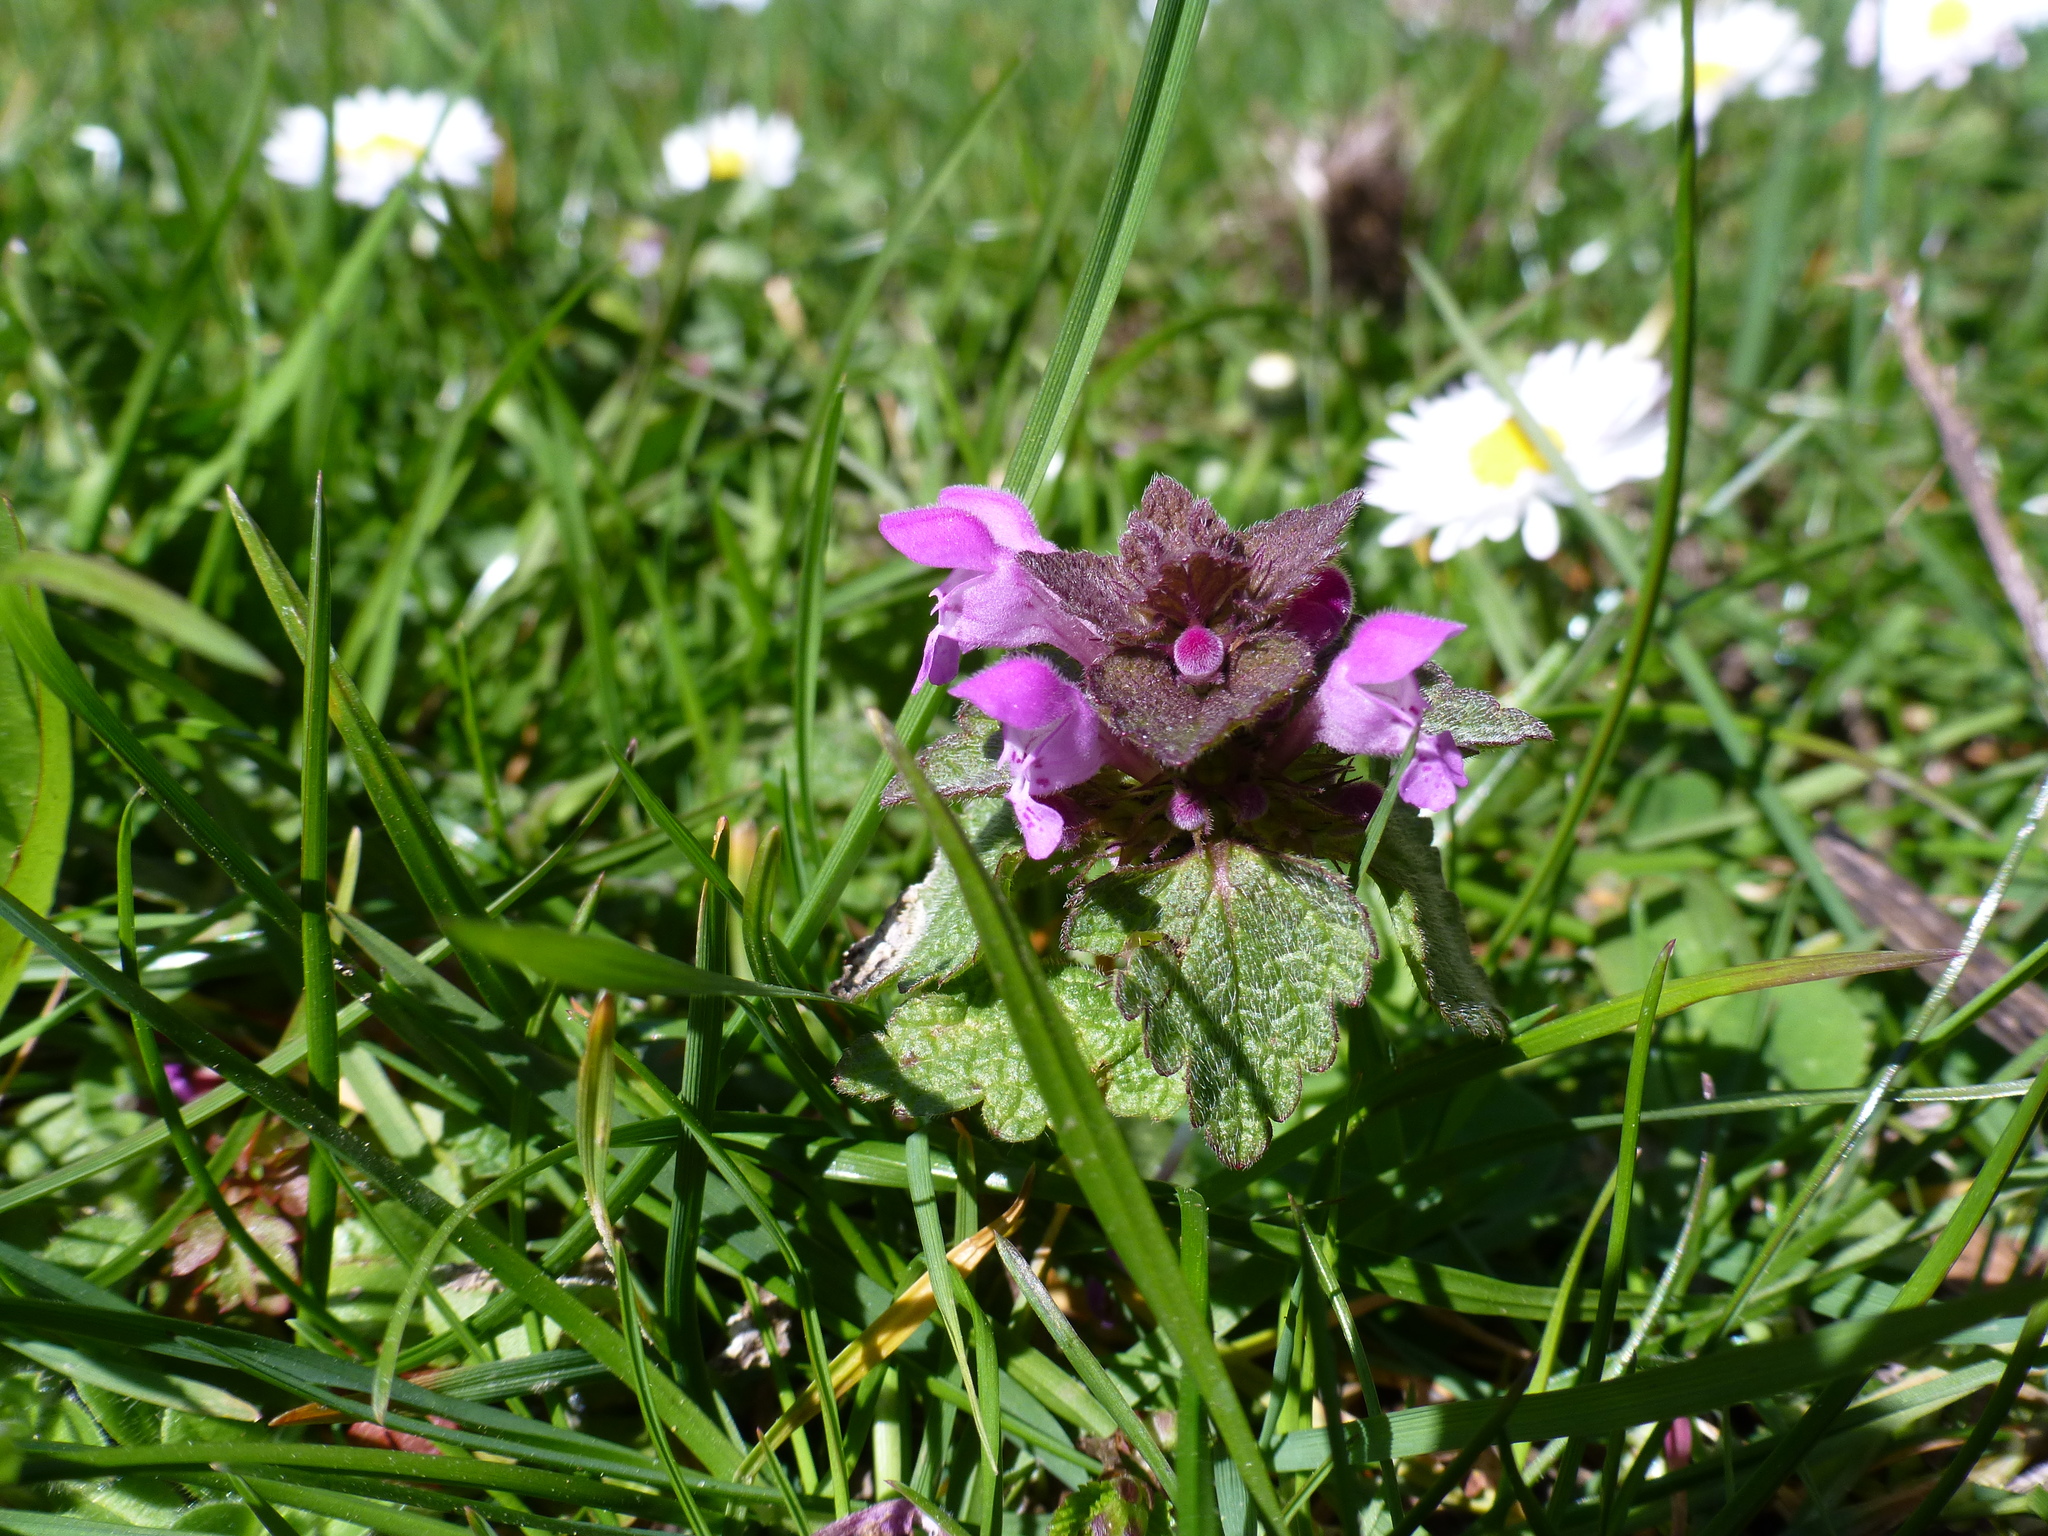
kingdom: Plantae
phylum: Tracheophyta
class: Magnoliopsida
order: Lamiales
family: Lamiaceae
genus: Lamium
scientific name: Lamium purpureum
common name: Red dead-nettle
